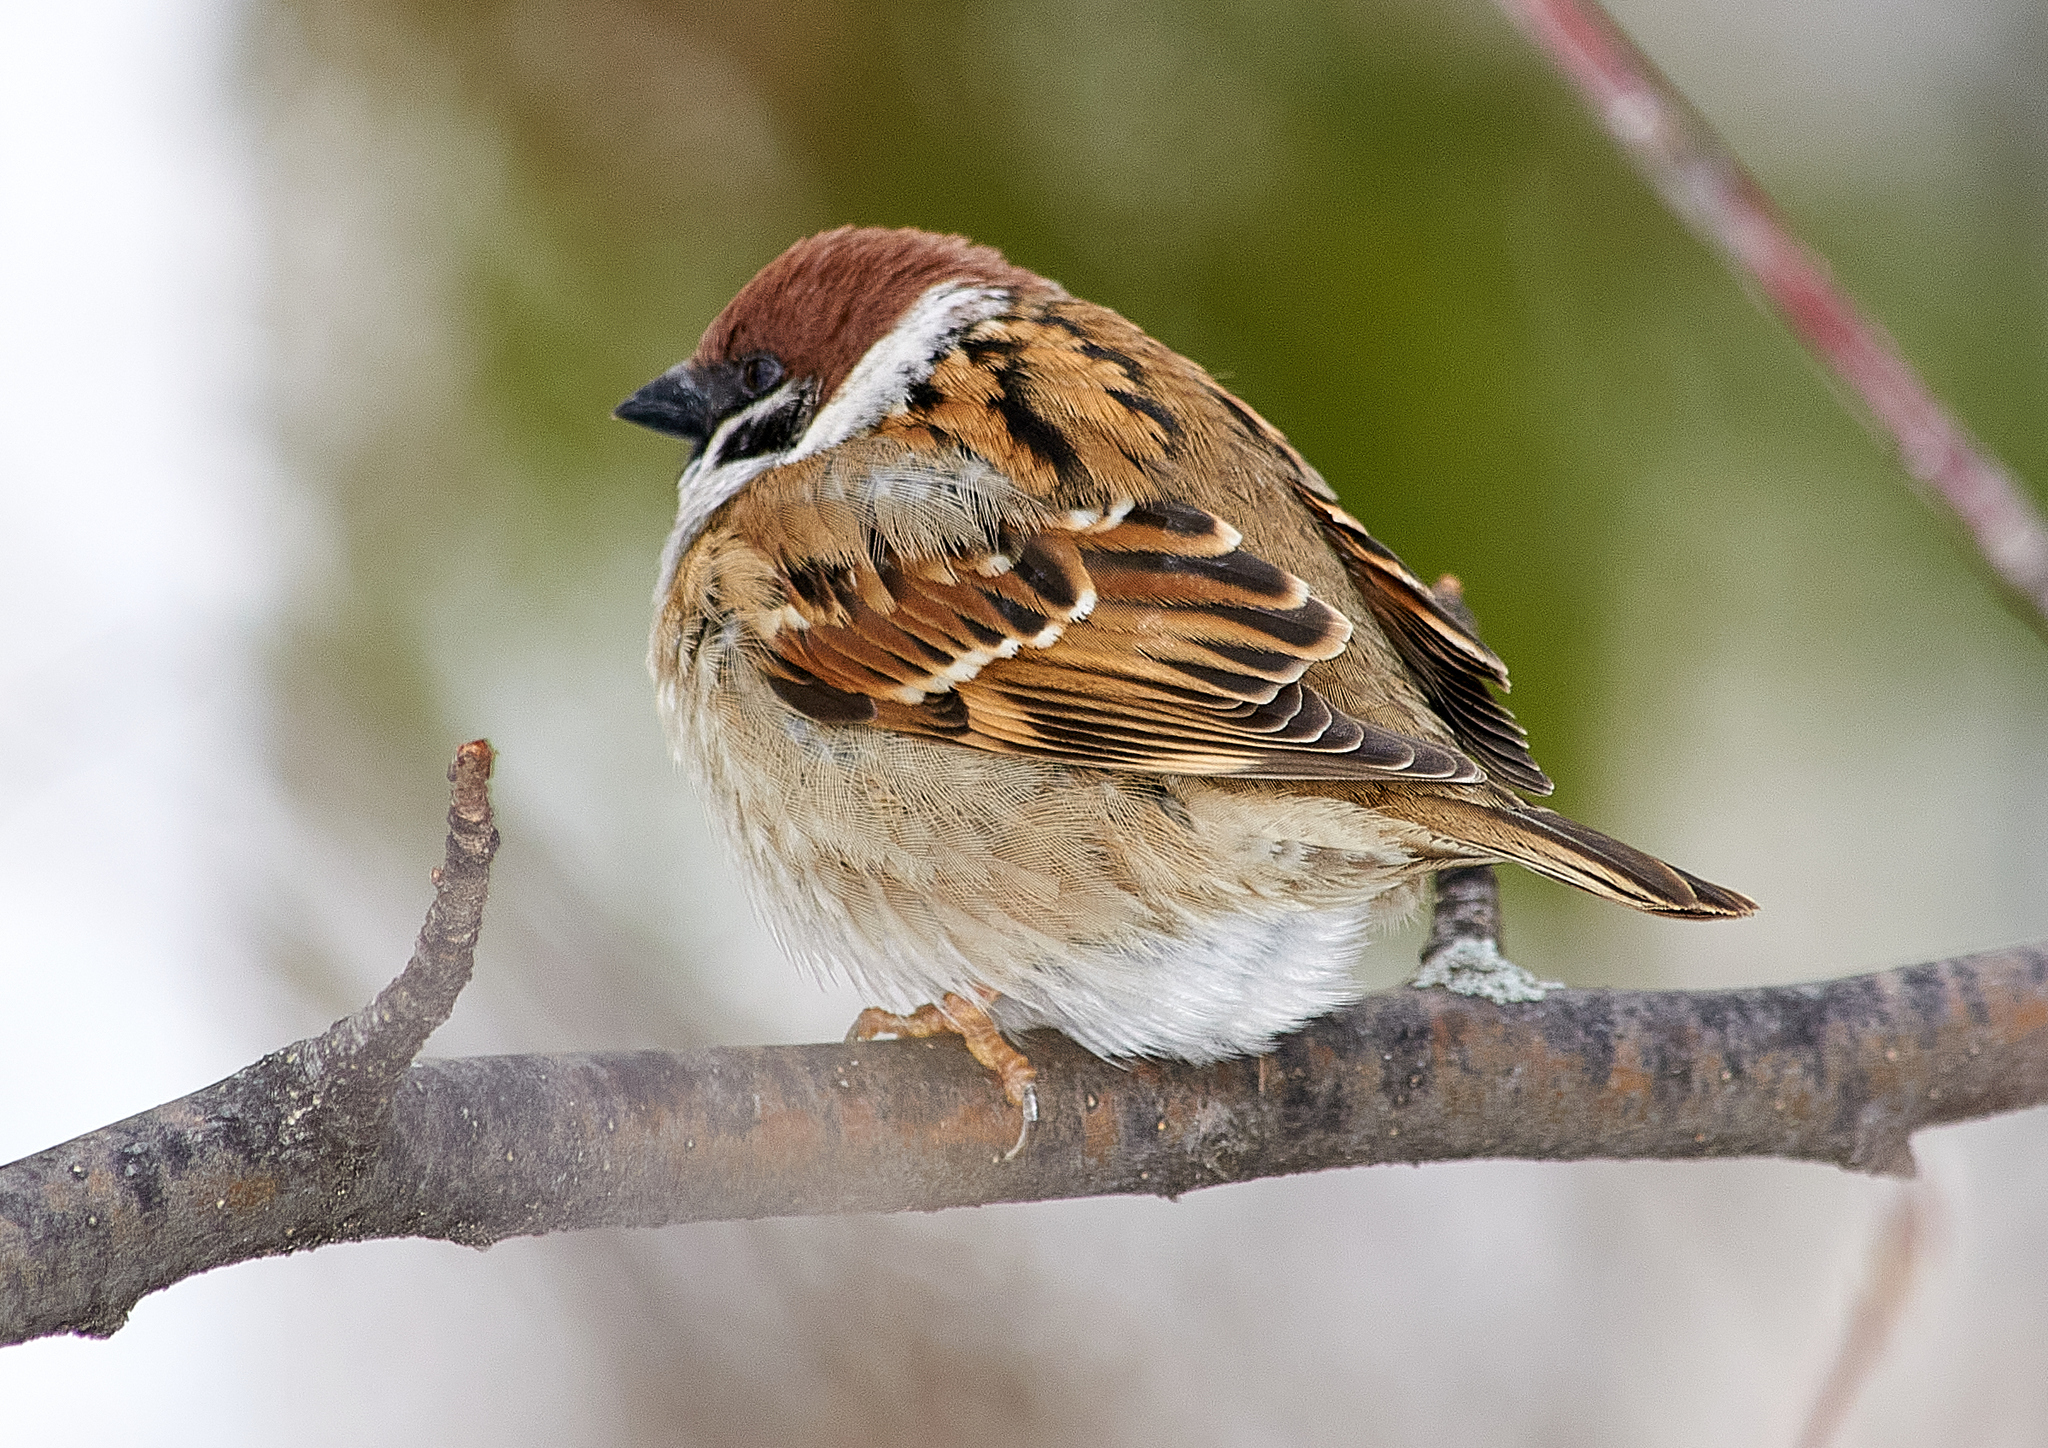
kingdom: Animalia
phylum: Chordata
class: Aves
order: Passeriformes
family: Passeridae
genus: Passer
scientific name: Passer montanus
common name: Eurasian tree sparrow
